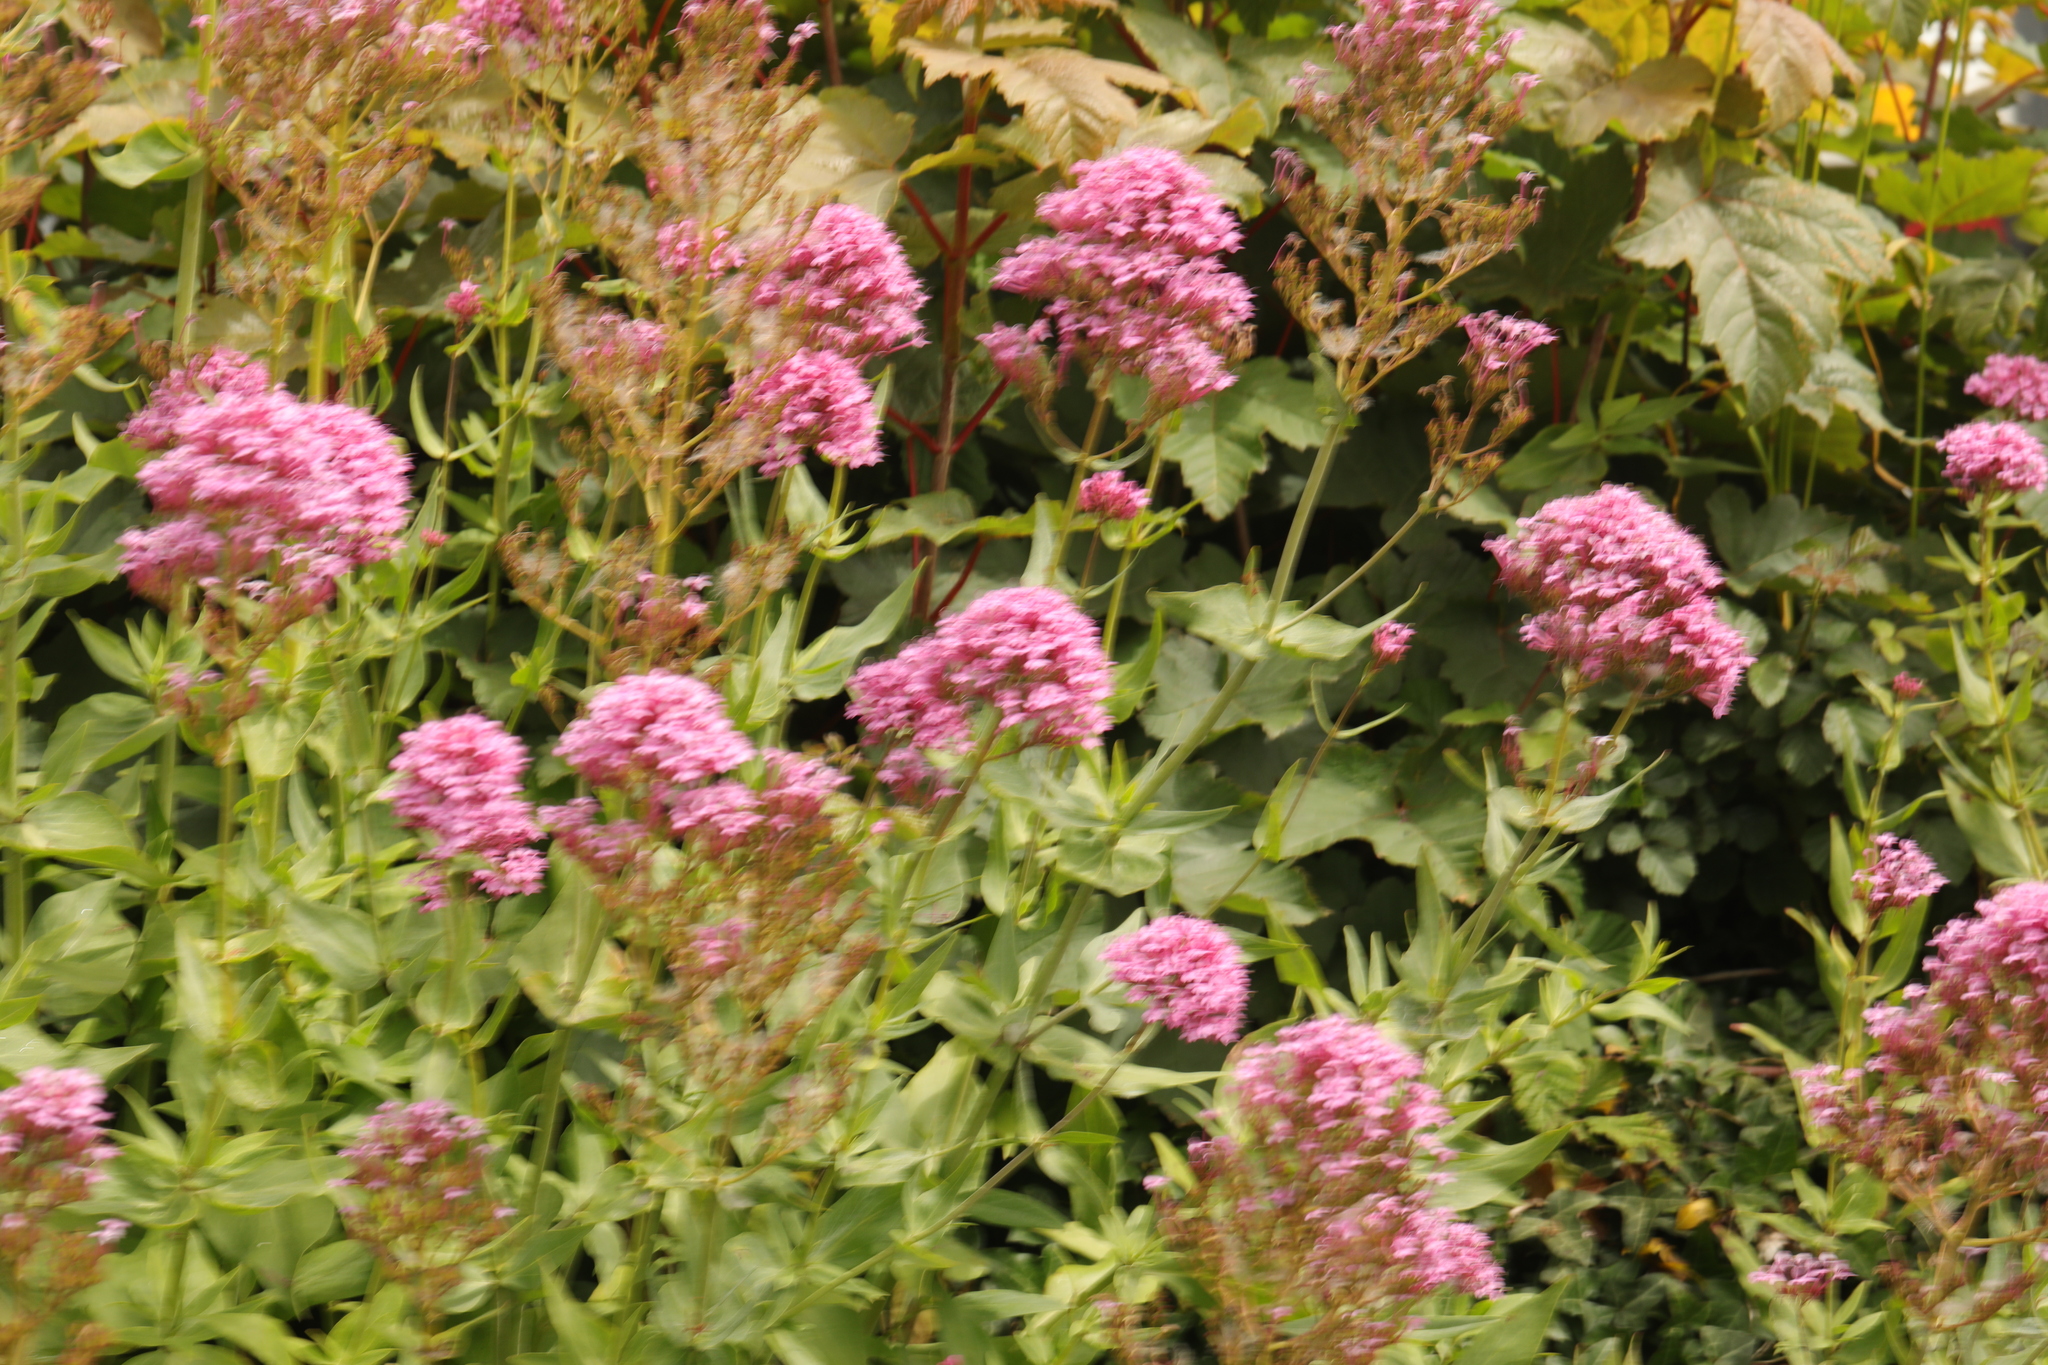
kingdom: Plantae
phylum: Tracheophyta
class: Magnoliopsida
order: Dipsacales
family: Caprifoliaceae
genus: Centranthus
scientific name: Centranthus ruber
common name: Red valerian
